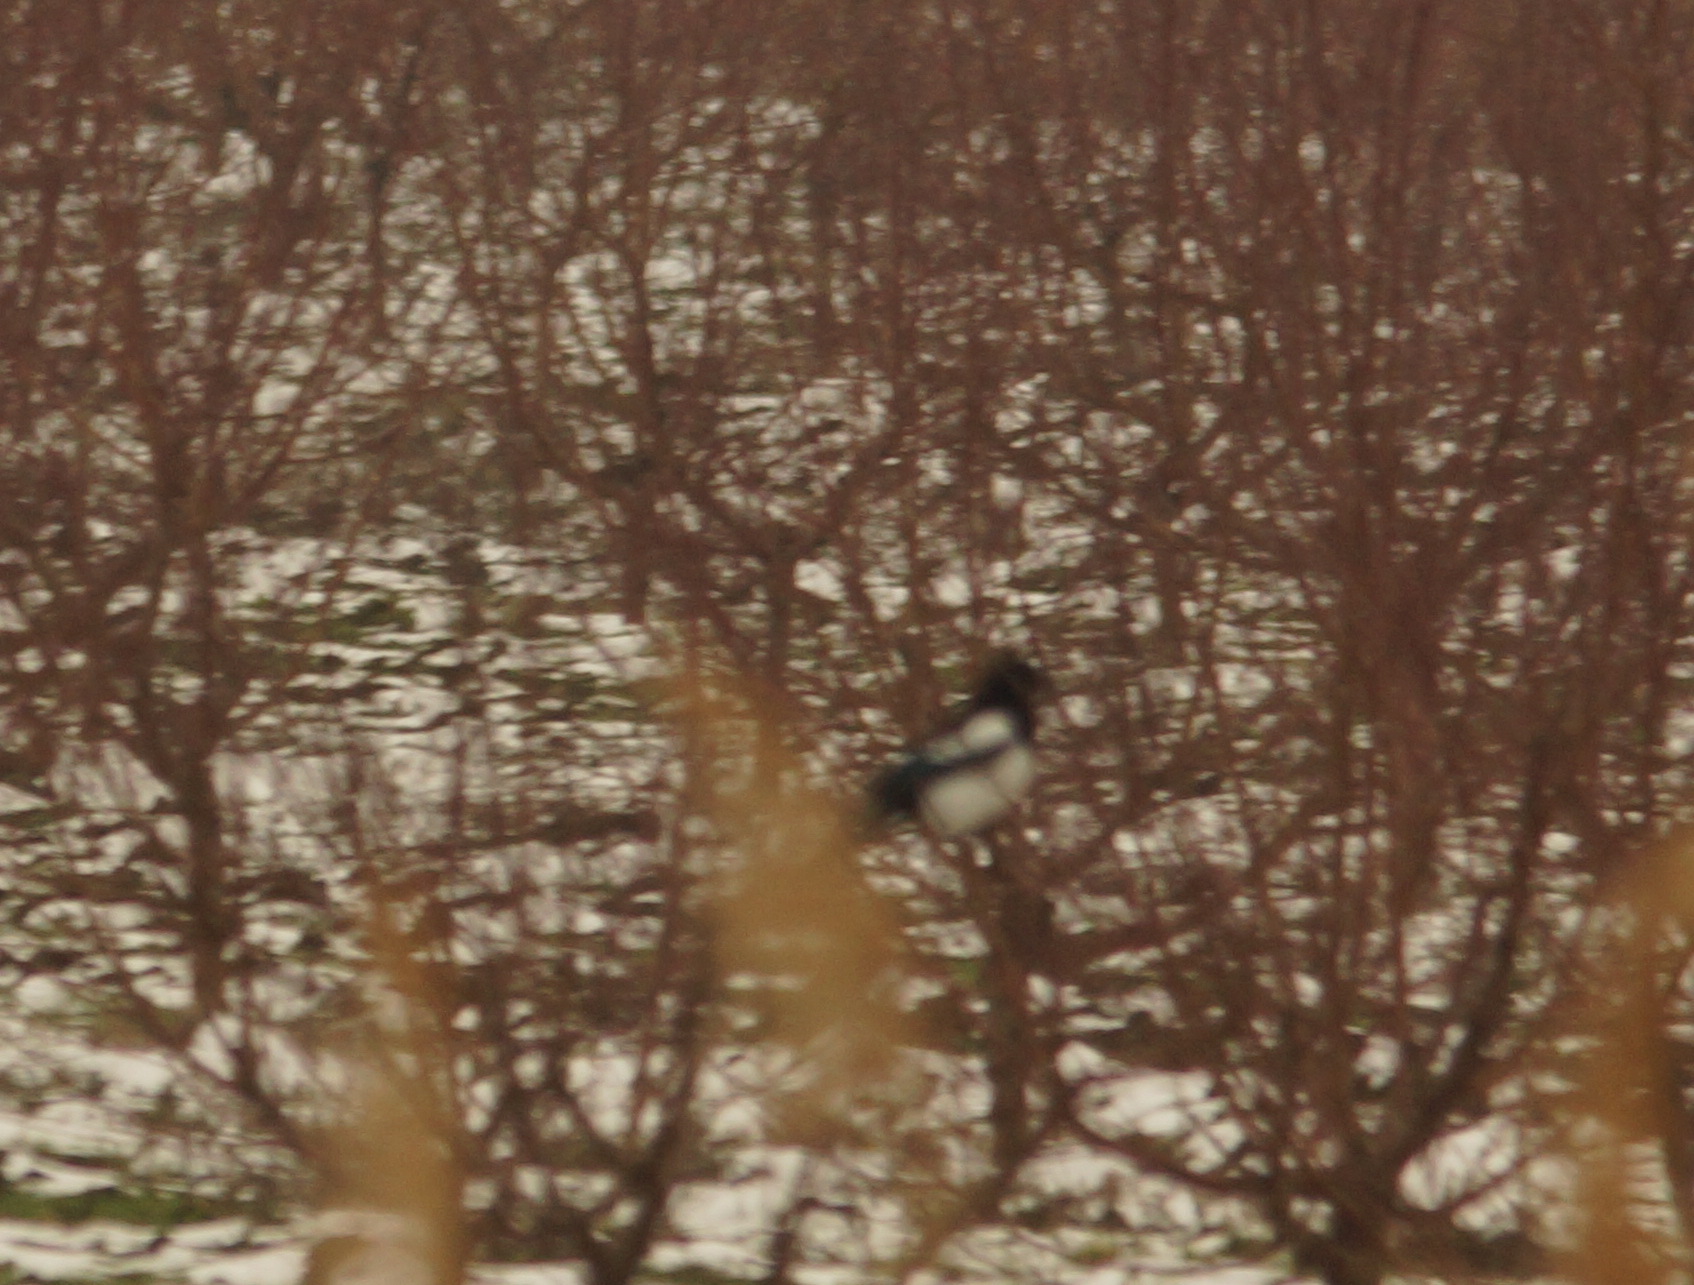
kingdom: Animalia
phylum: Chordata
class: Aves
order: Passeriformes
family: Corvidae
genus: Pica
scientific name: Pica pica
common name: Eurasian magpie
